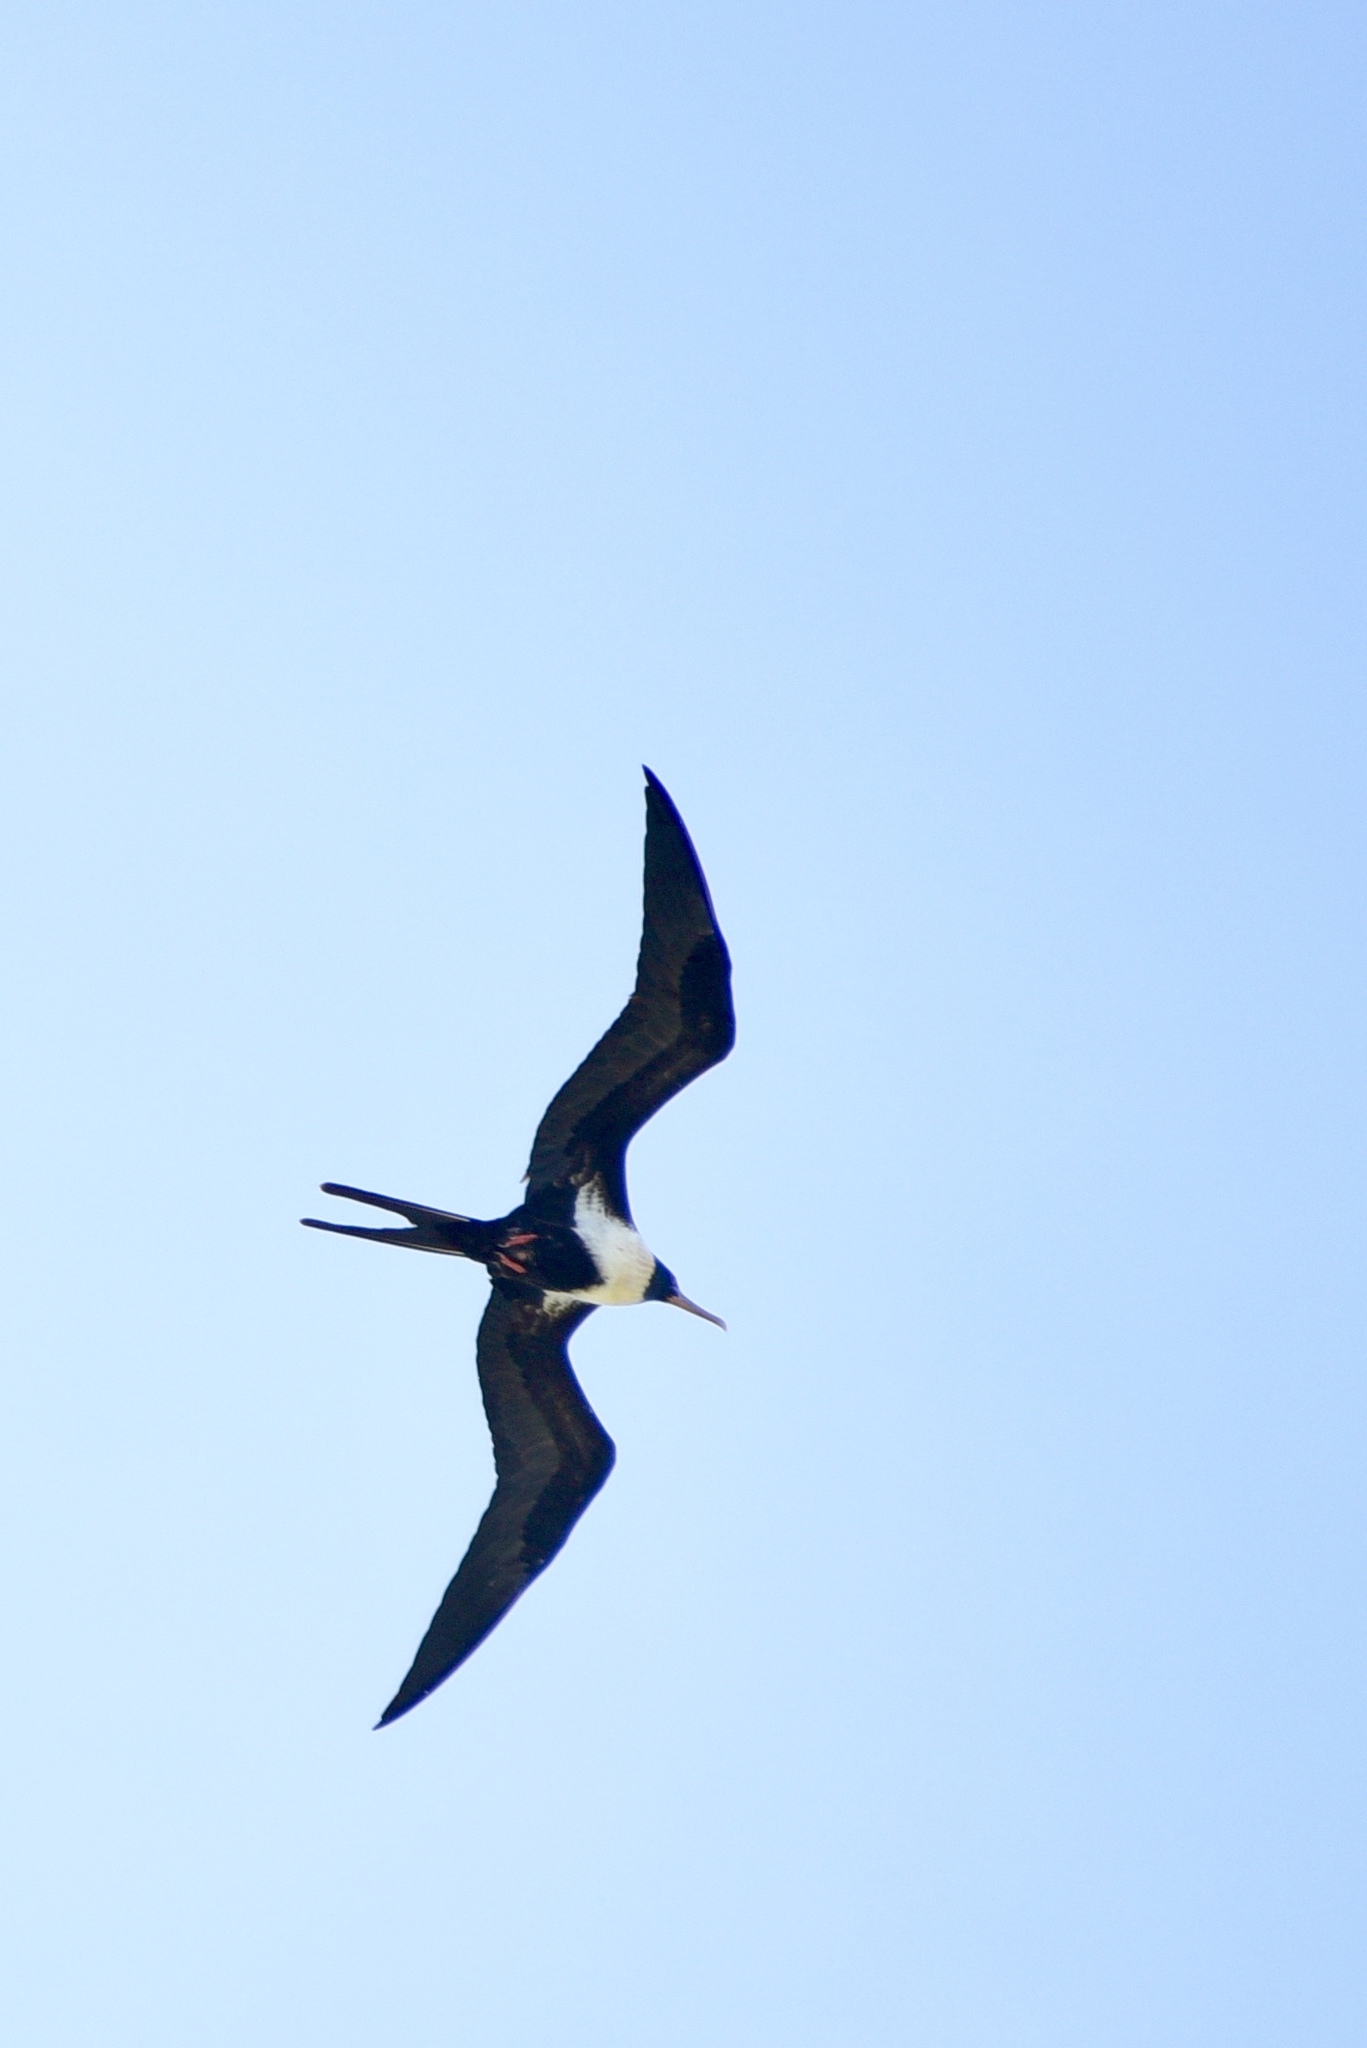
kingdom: Animalia
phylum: Chordata
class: Aves
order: Suliformes
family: Fregatidae
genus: Fregata
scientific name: Fregata ariel
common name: Lesser frigatebird
